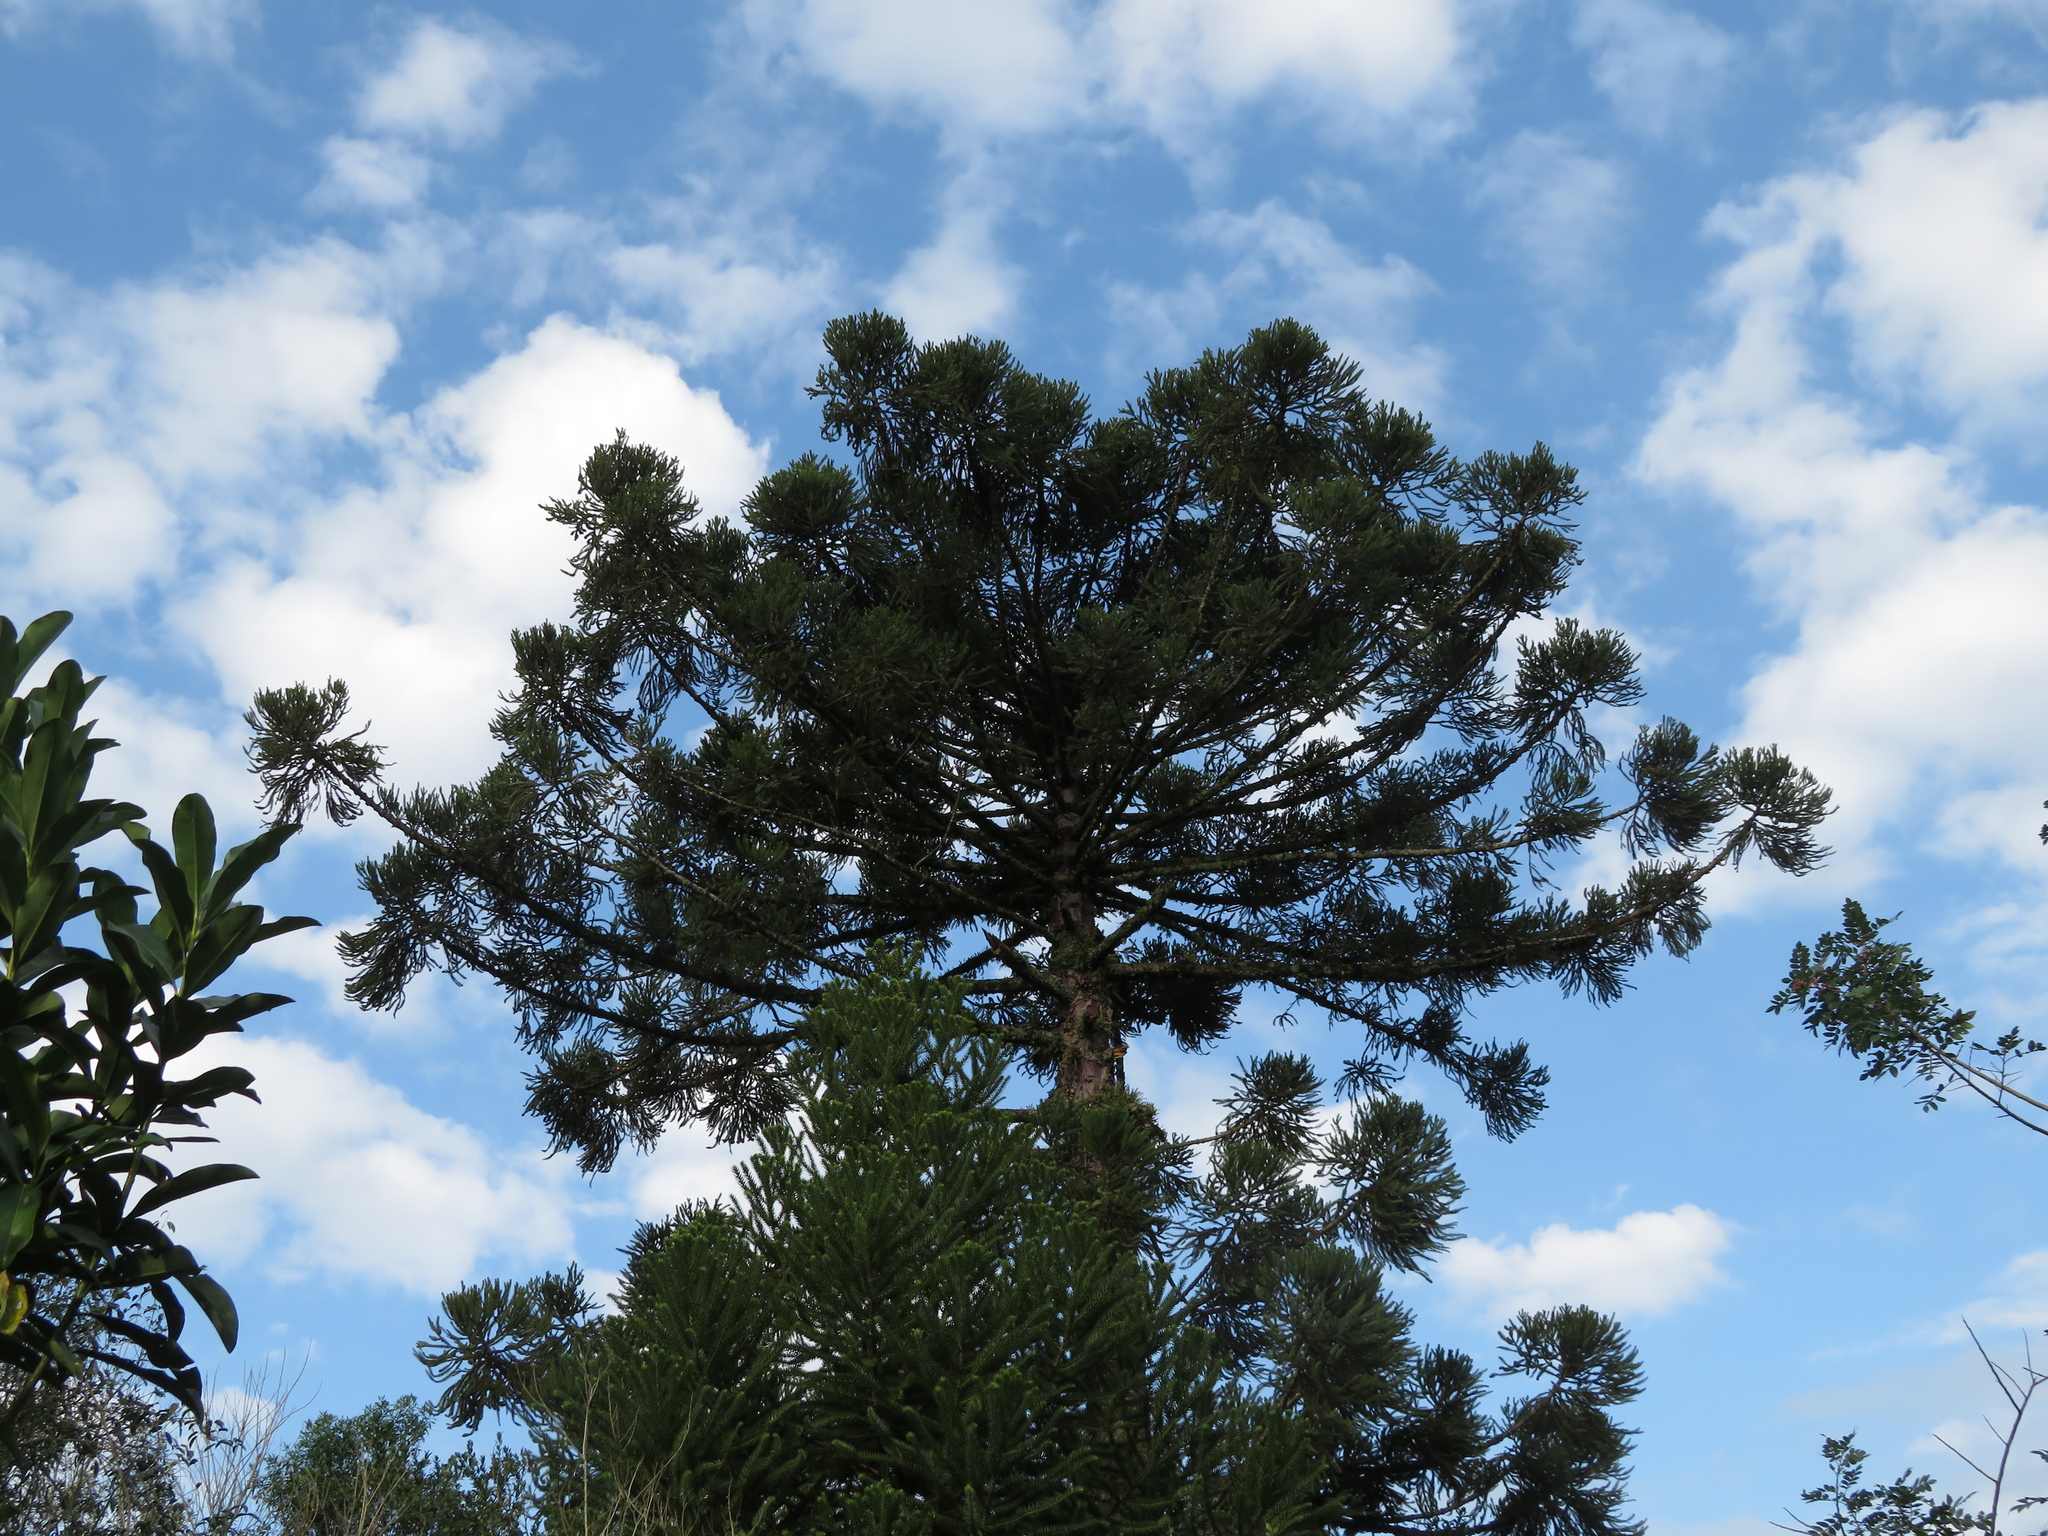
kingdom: Plantae
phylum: Tracheophyta
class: Pinopsida
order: Pinales
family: Araucariaceae
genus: Araucaria
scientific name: Araucaria angustifolia
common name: Candelabra tree
